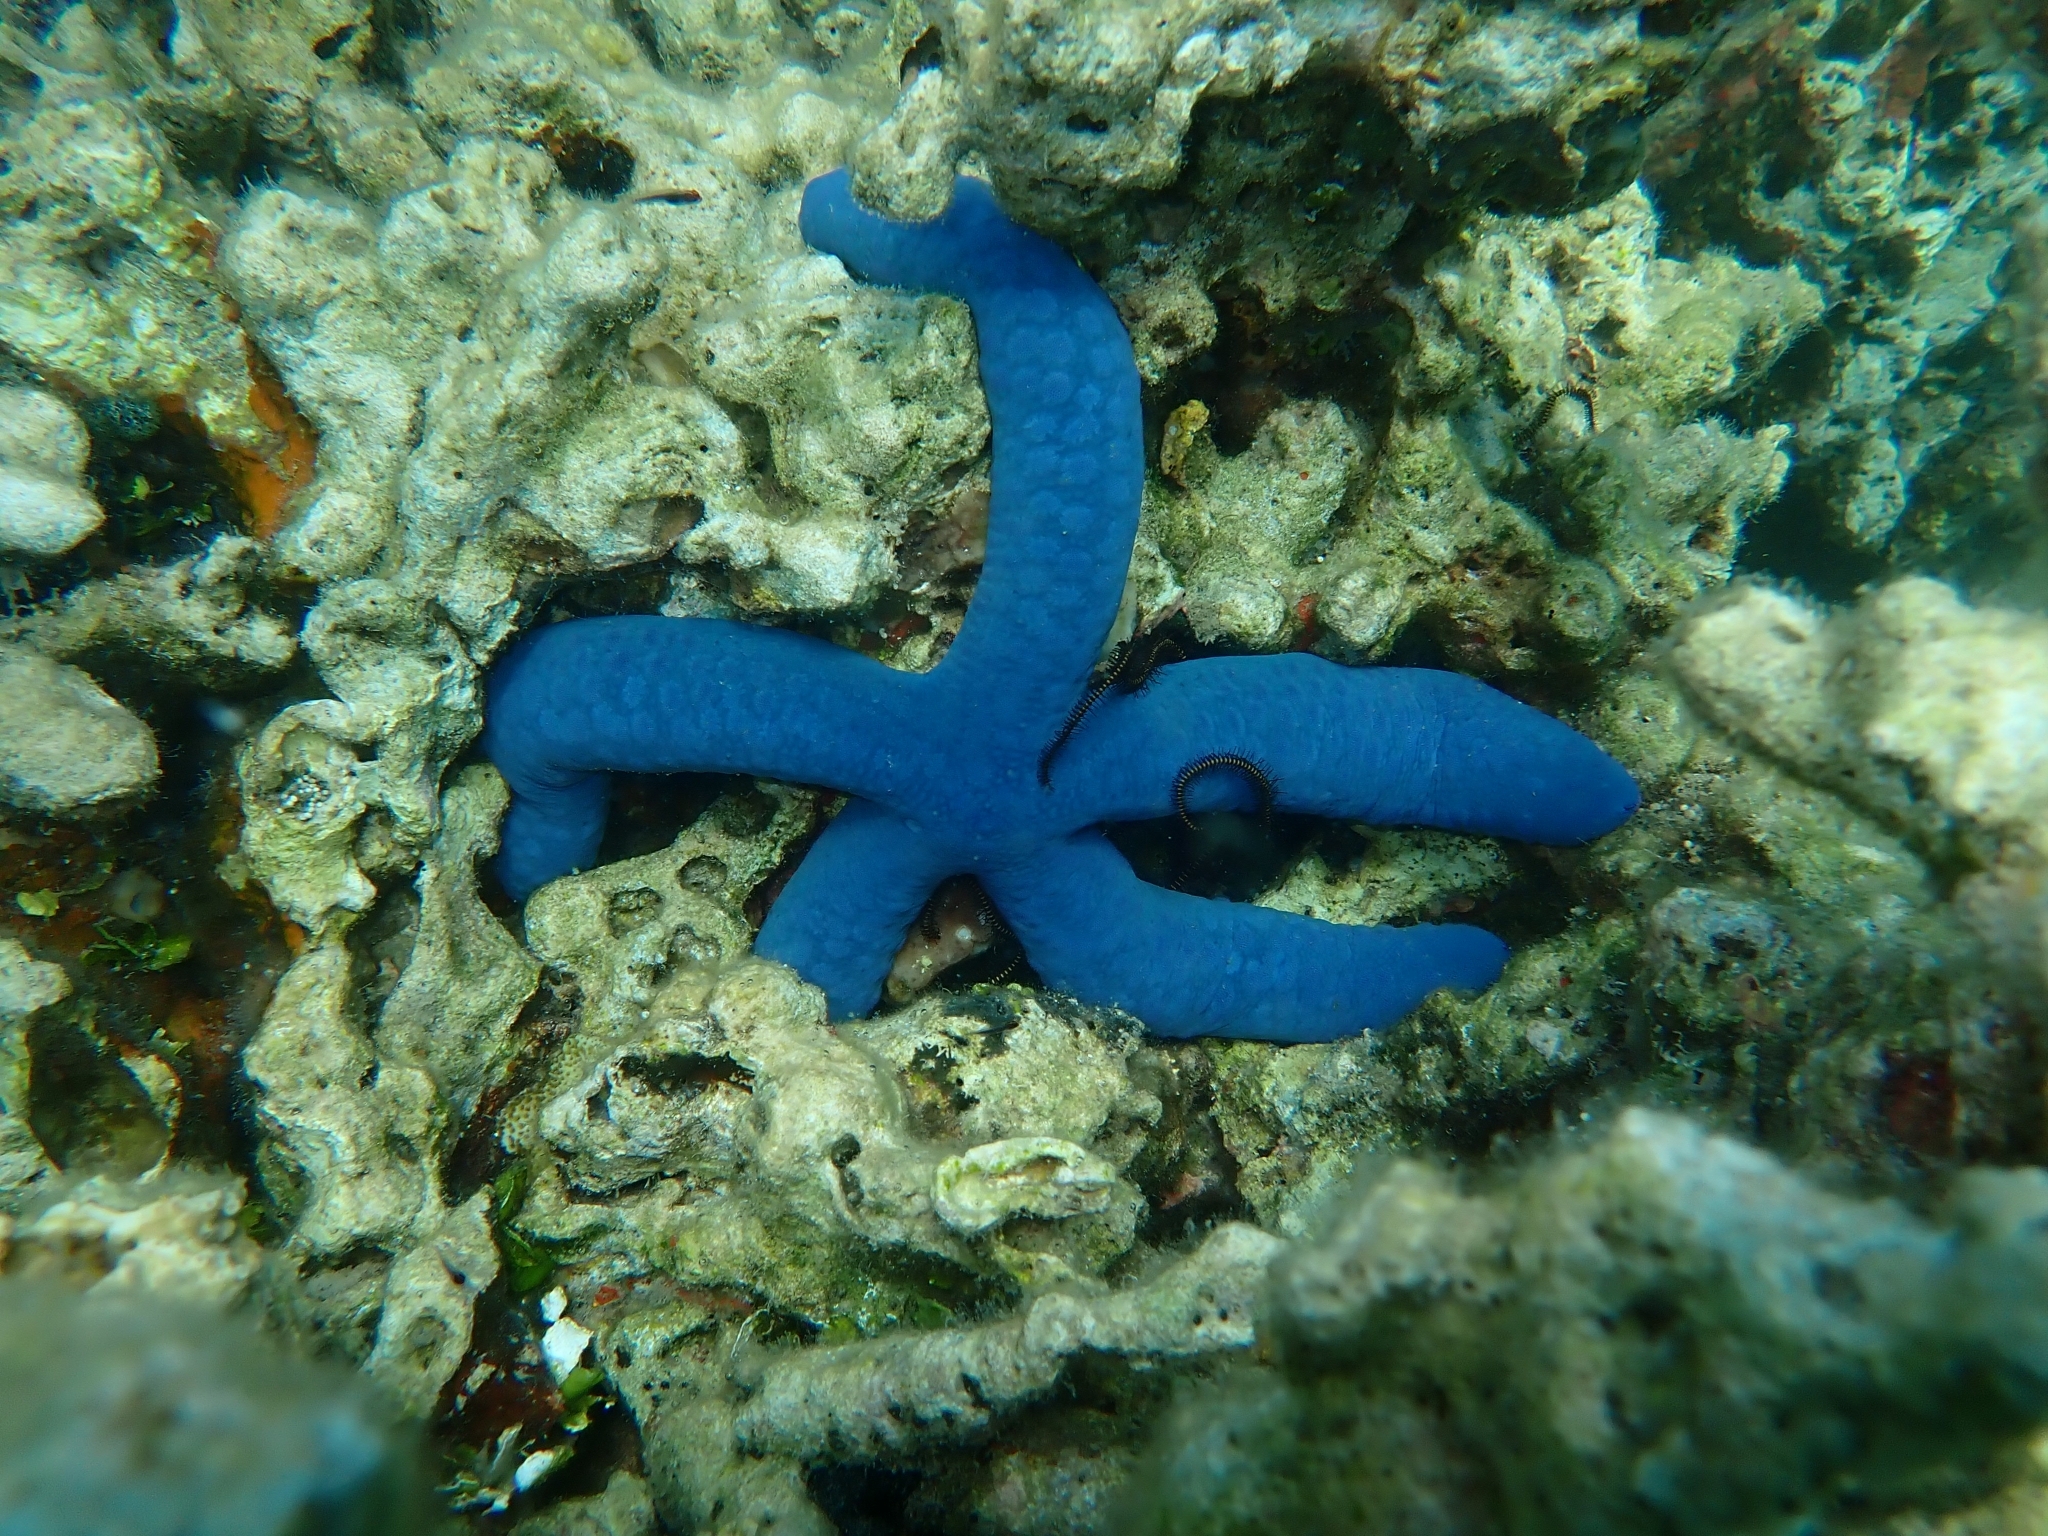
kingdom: Animalia
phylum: Echinodermata
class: Asteroidea
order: Valvatida
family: Ophidiasteridae
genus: Linckia
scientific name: Linckia laevigata
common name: Azure sea star
